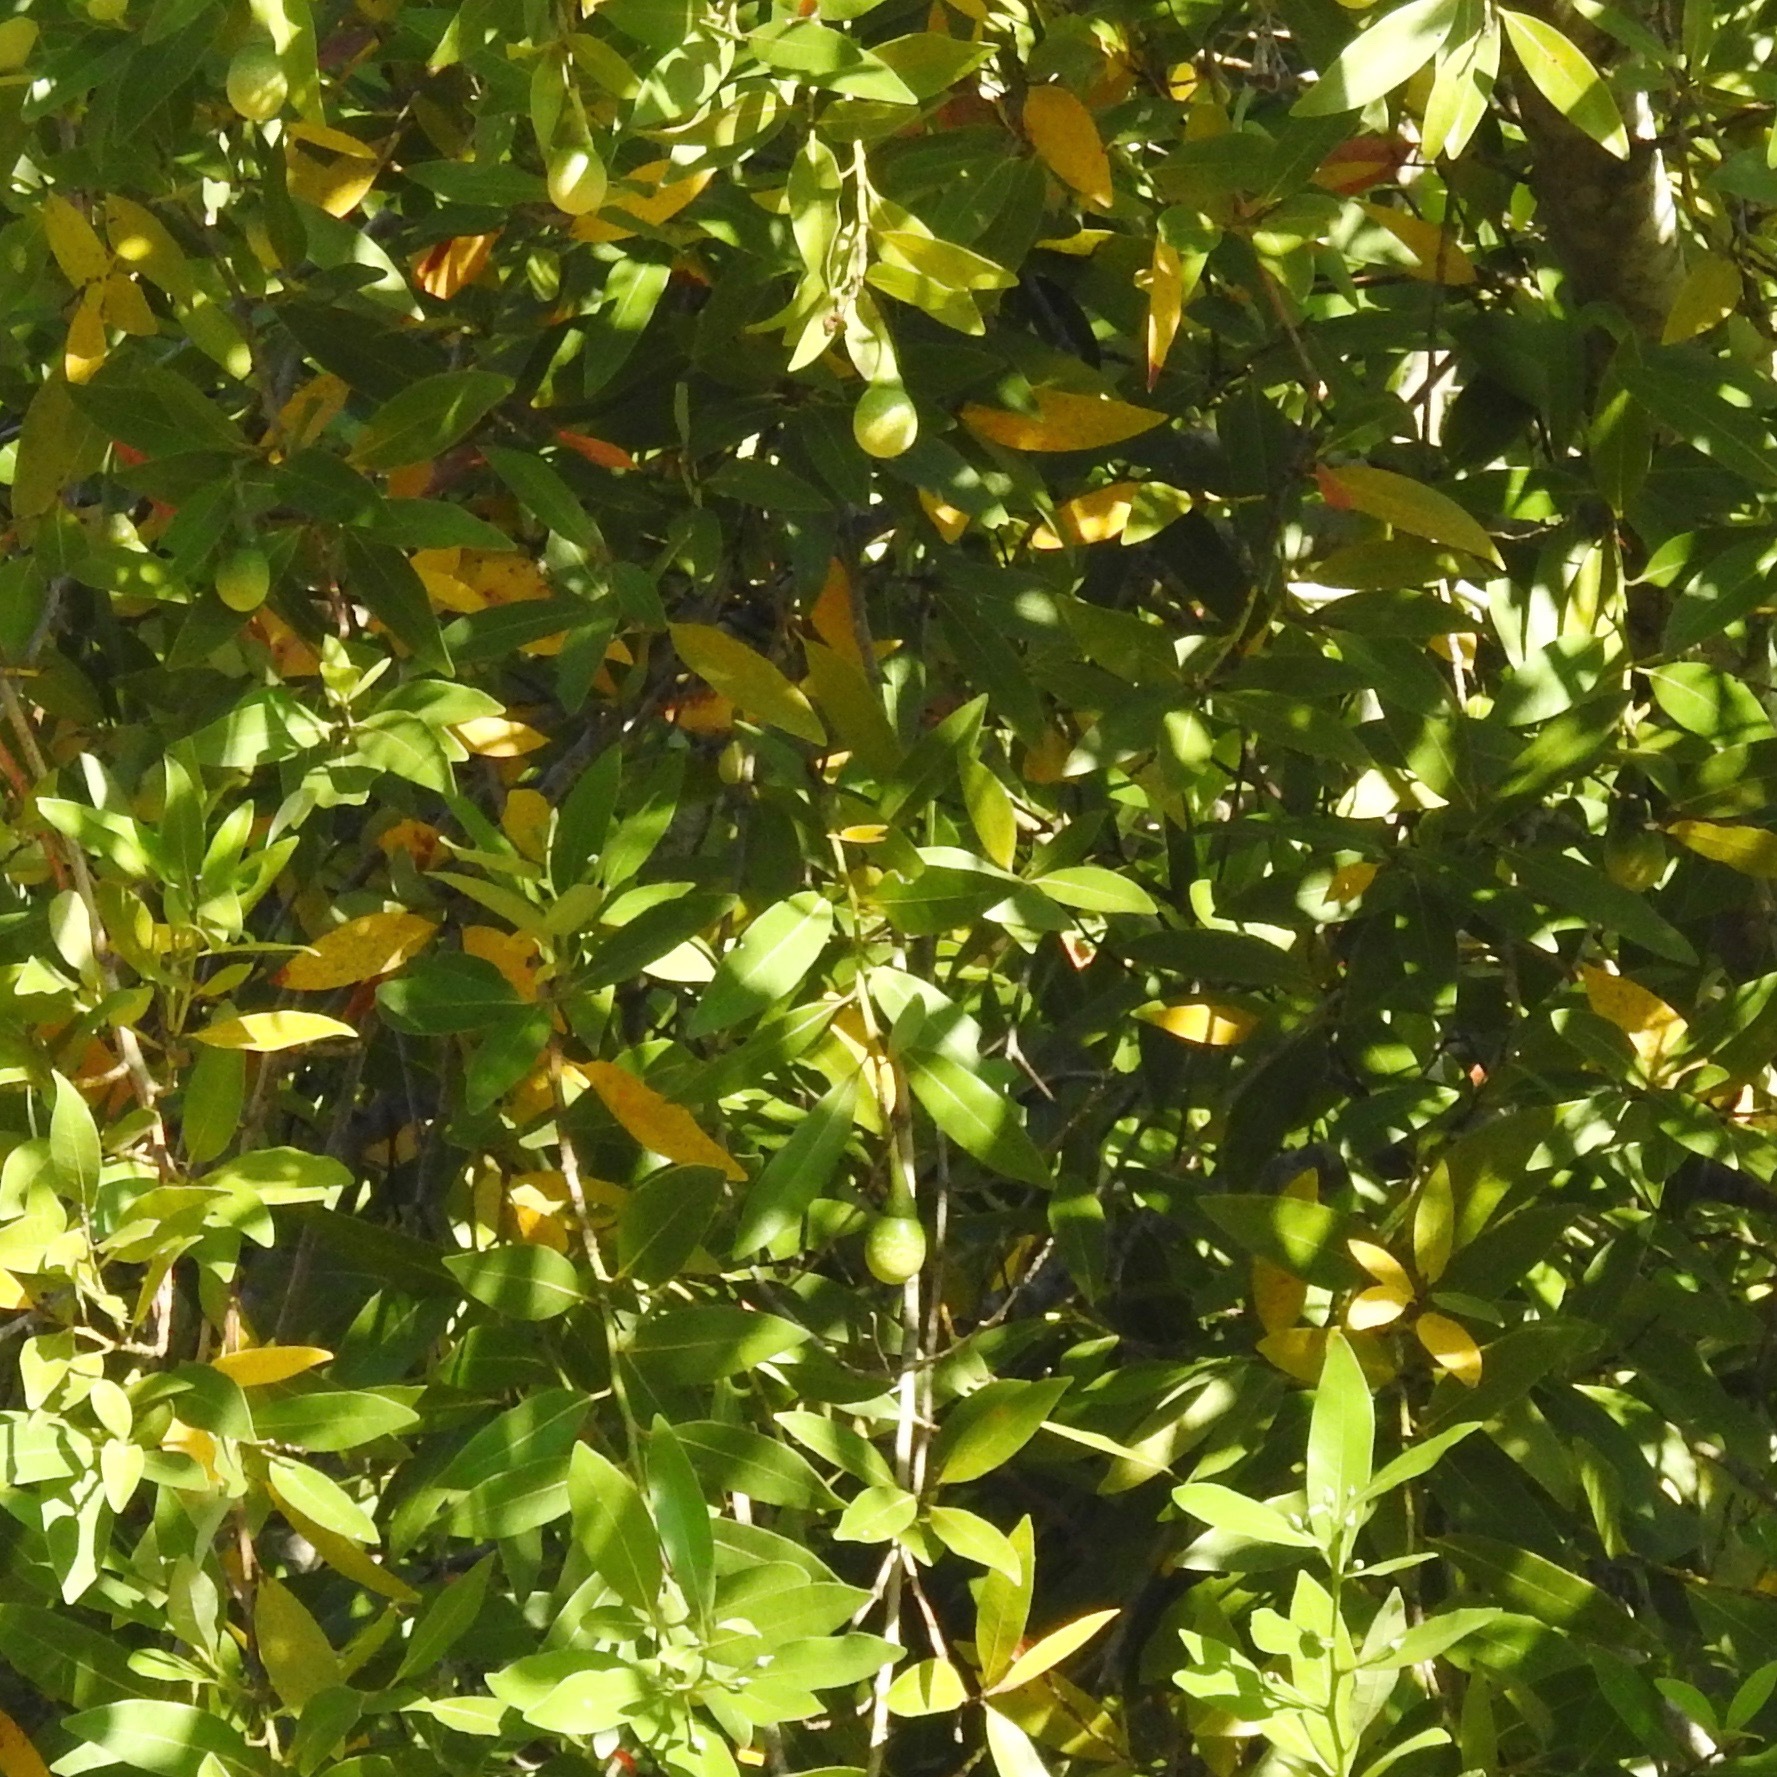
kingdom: Plantae
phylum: Tracheophyta
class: Magnoliopsida
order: Laurales
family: Lauraceae
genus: Umbellularia
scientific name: Umbellularia californica
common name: California bay
